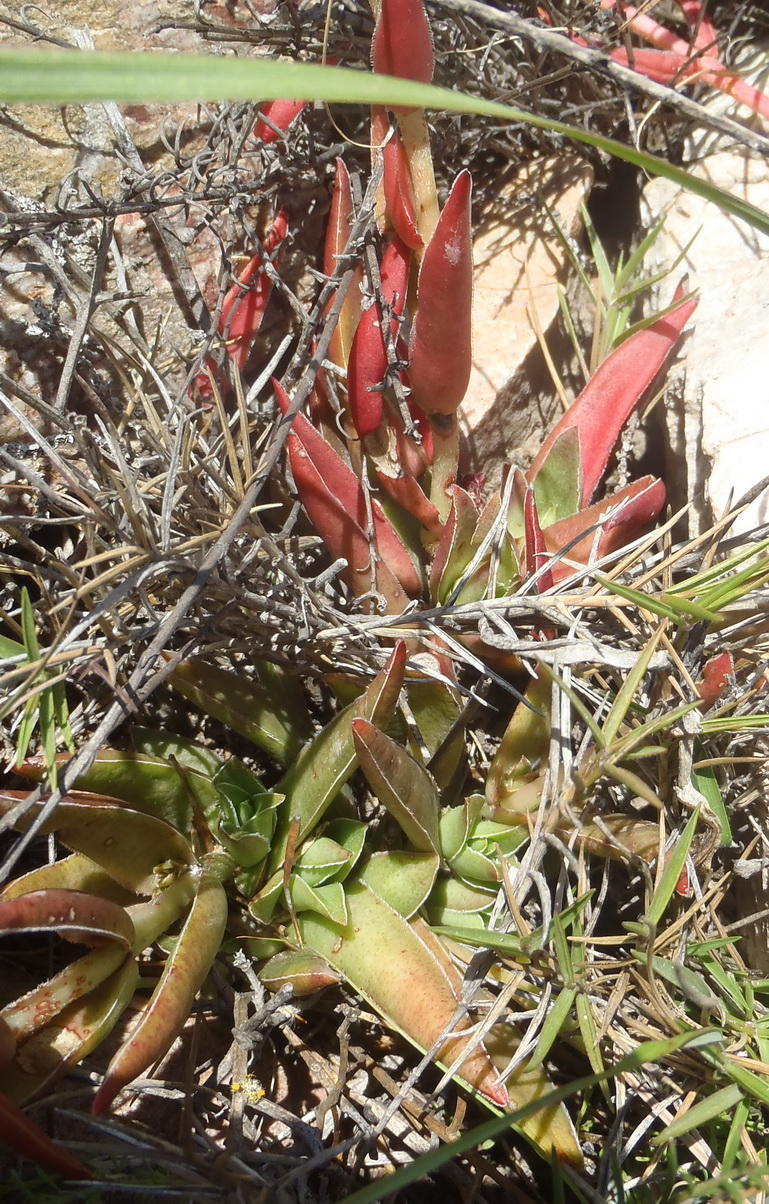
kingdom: Plantae
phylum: Tracheophyta
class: Magnoliopsida
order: Saxifragales
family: Crassulaceae
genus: Crassula
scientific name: Crassula capitella
